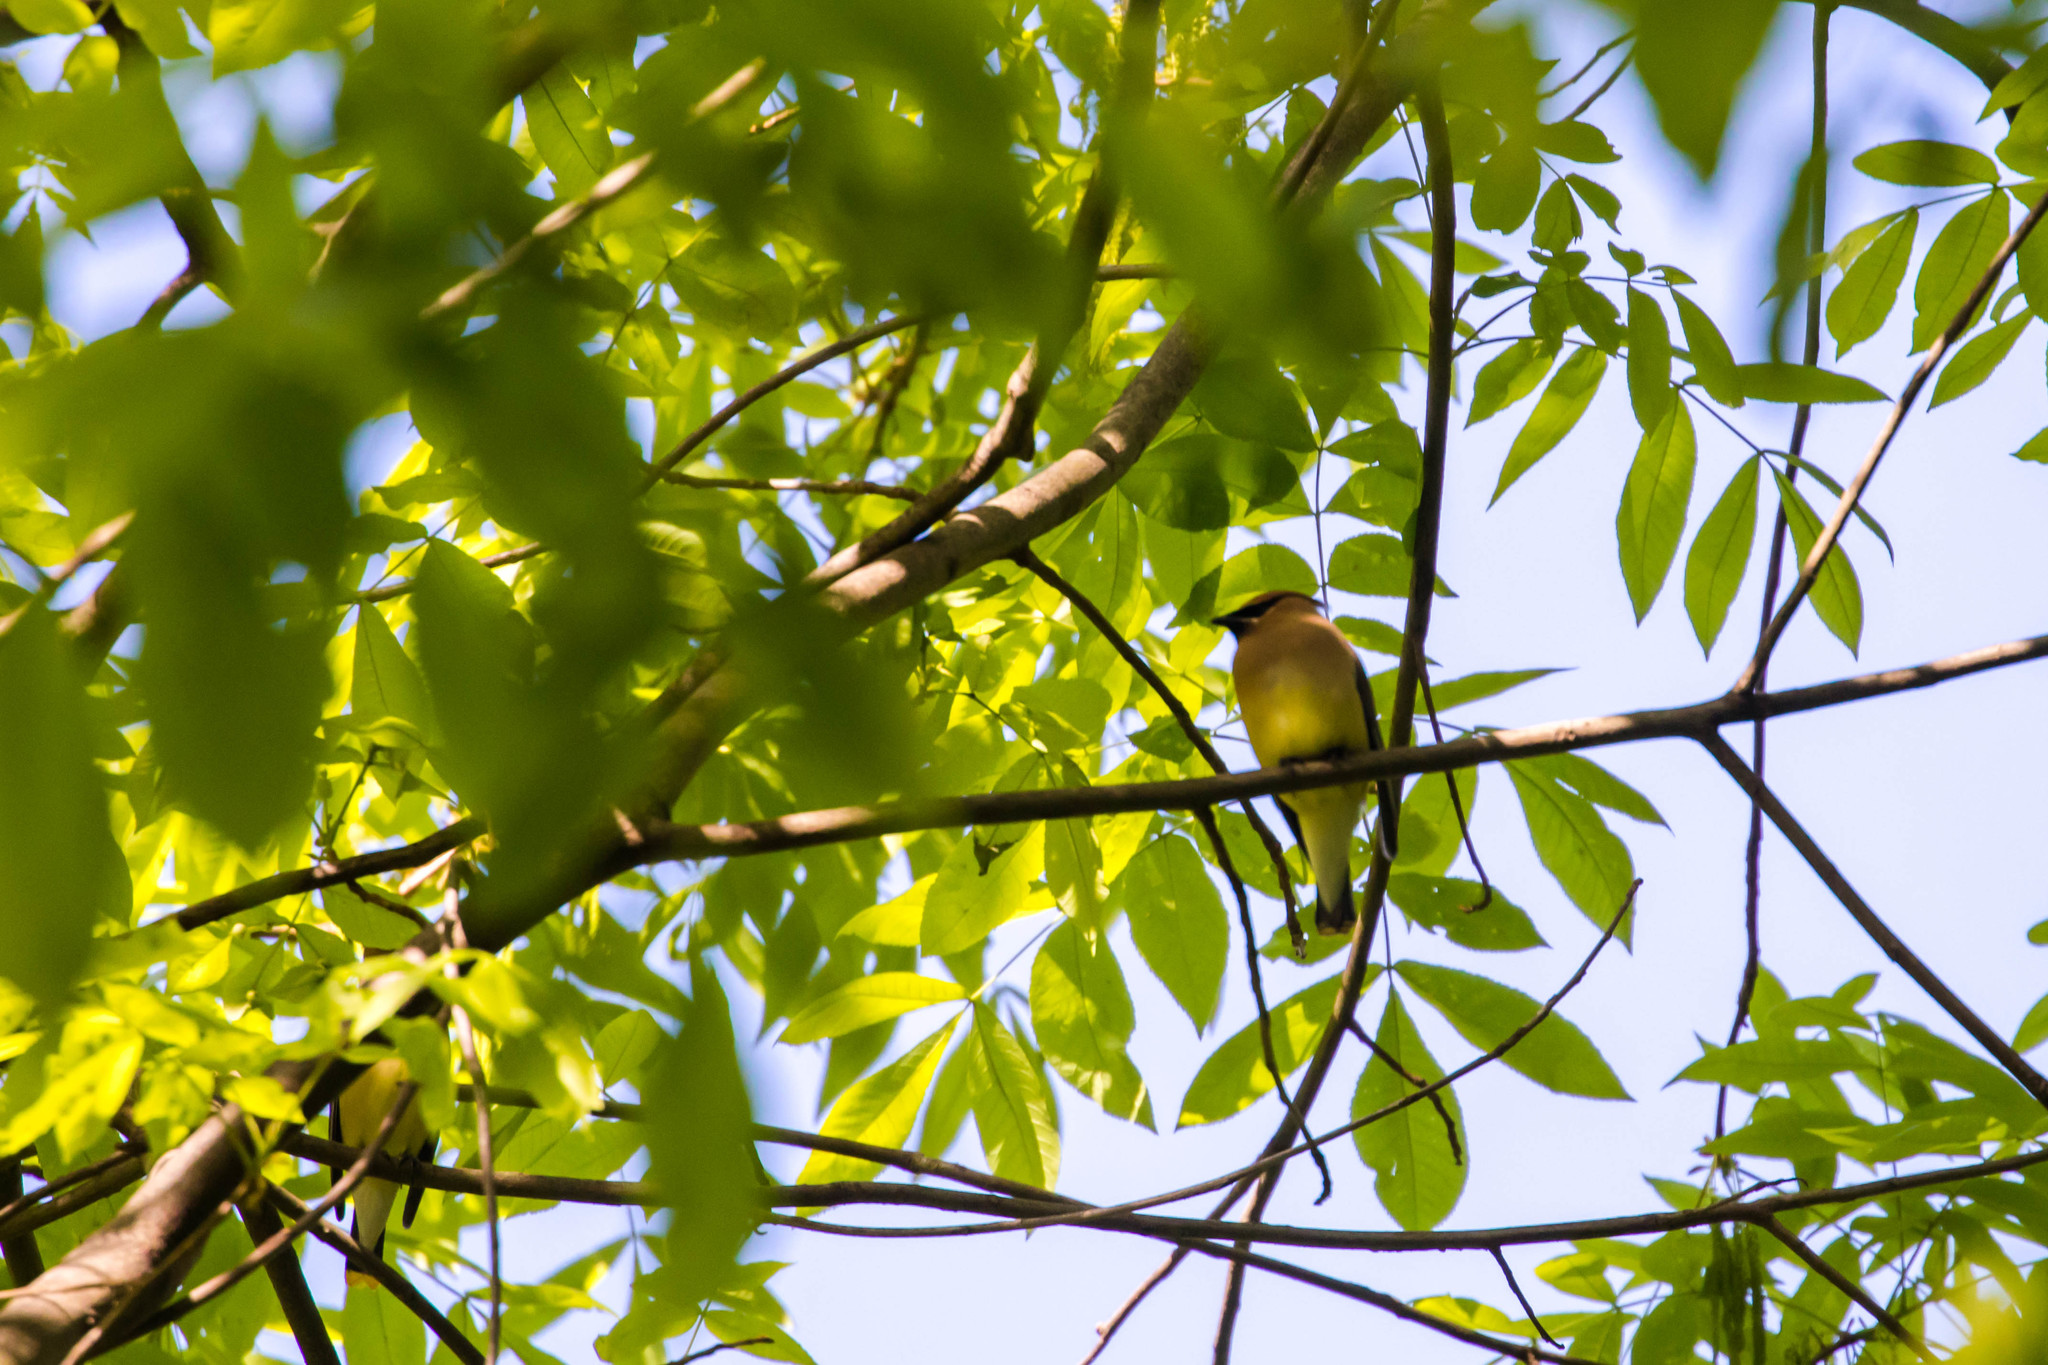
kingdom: Animalia
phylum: Chordata
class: Aves
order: Passeriformes
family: Bombycillidae
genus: Bombycilla
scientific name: Bombycilla cedrorum
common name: Cedar waxwing
